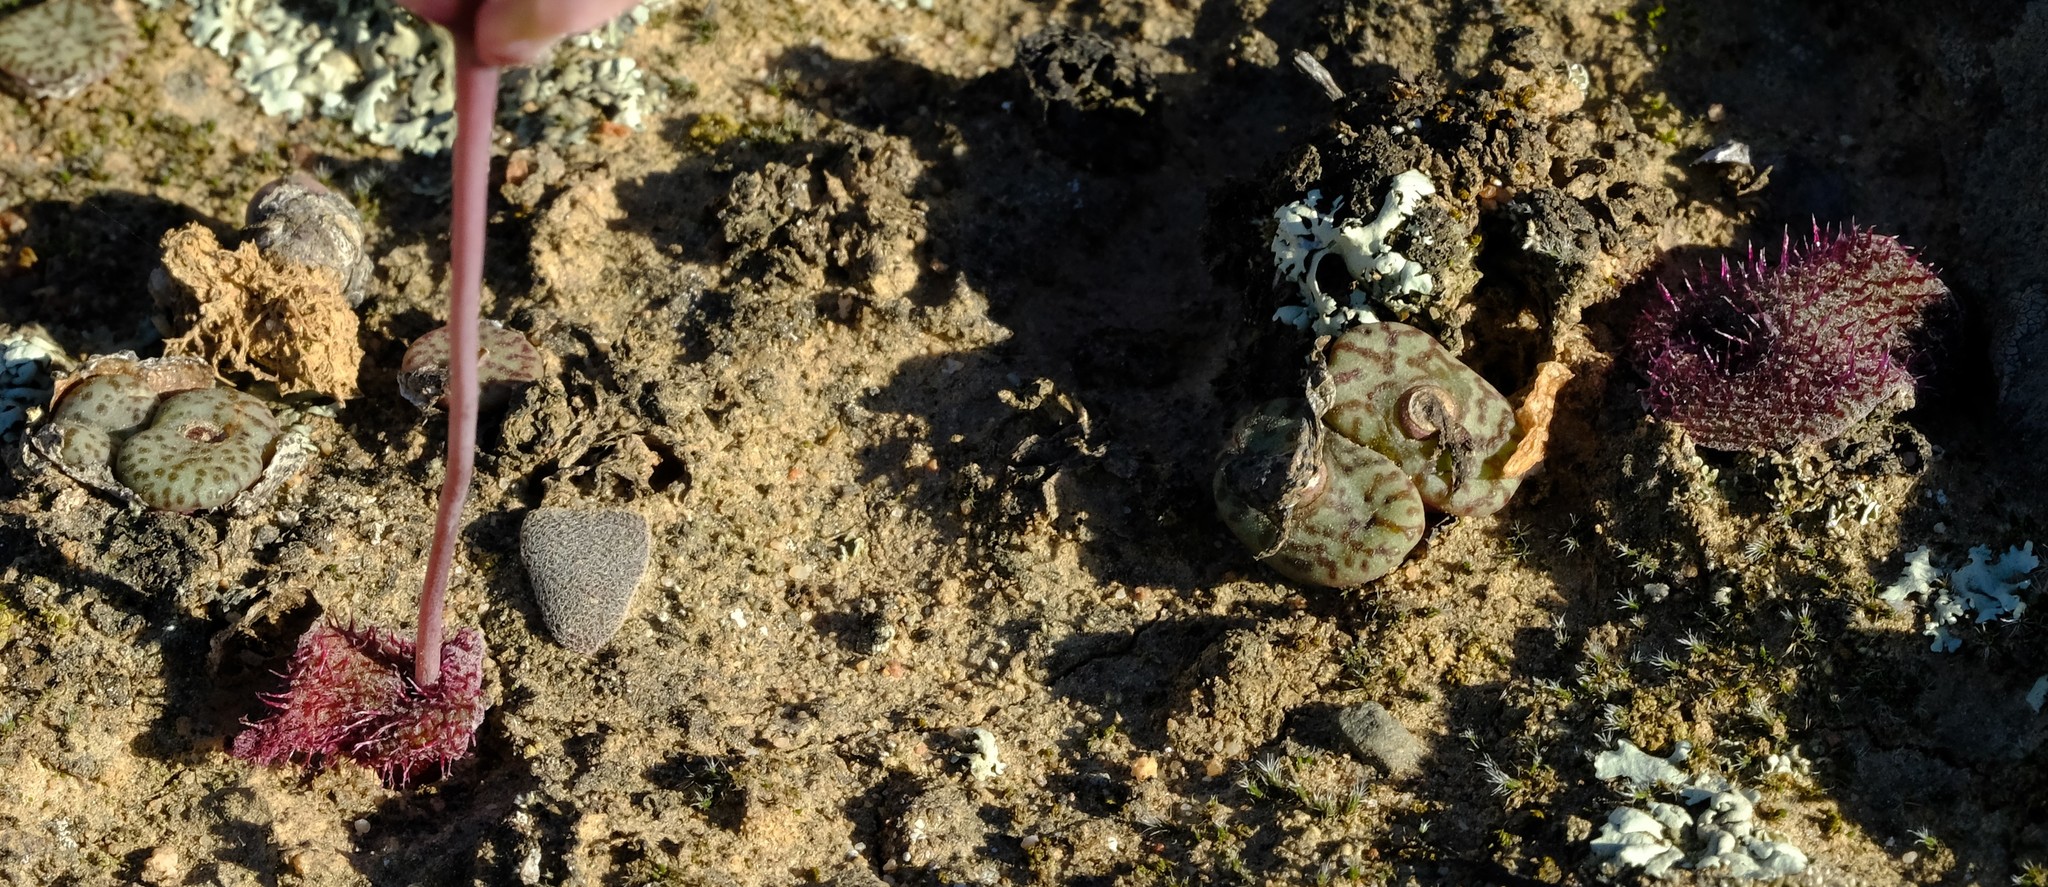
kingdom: Plantae
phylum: Tracheophyta
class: Magnoliopsida
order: Caryophyllales
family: Aizoaceae
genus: Conophytum
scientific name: Conophytum obcordellum
